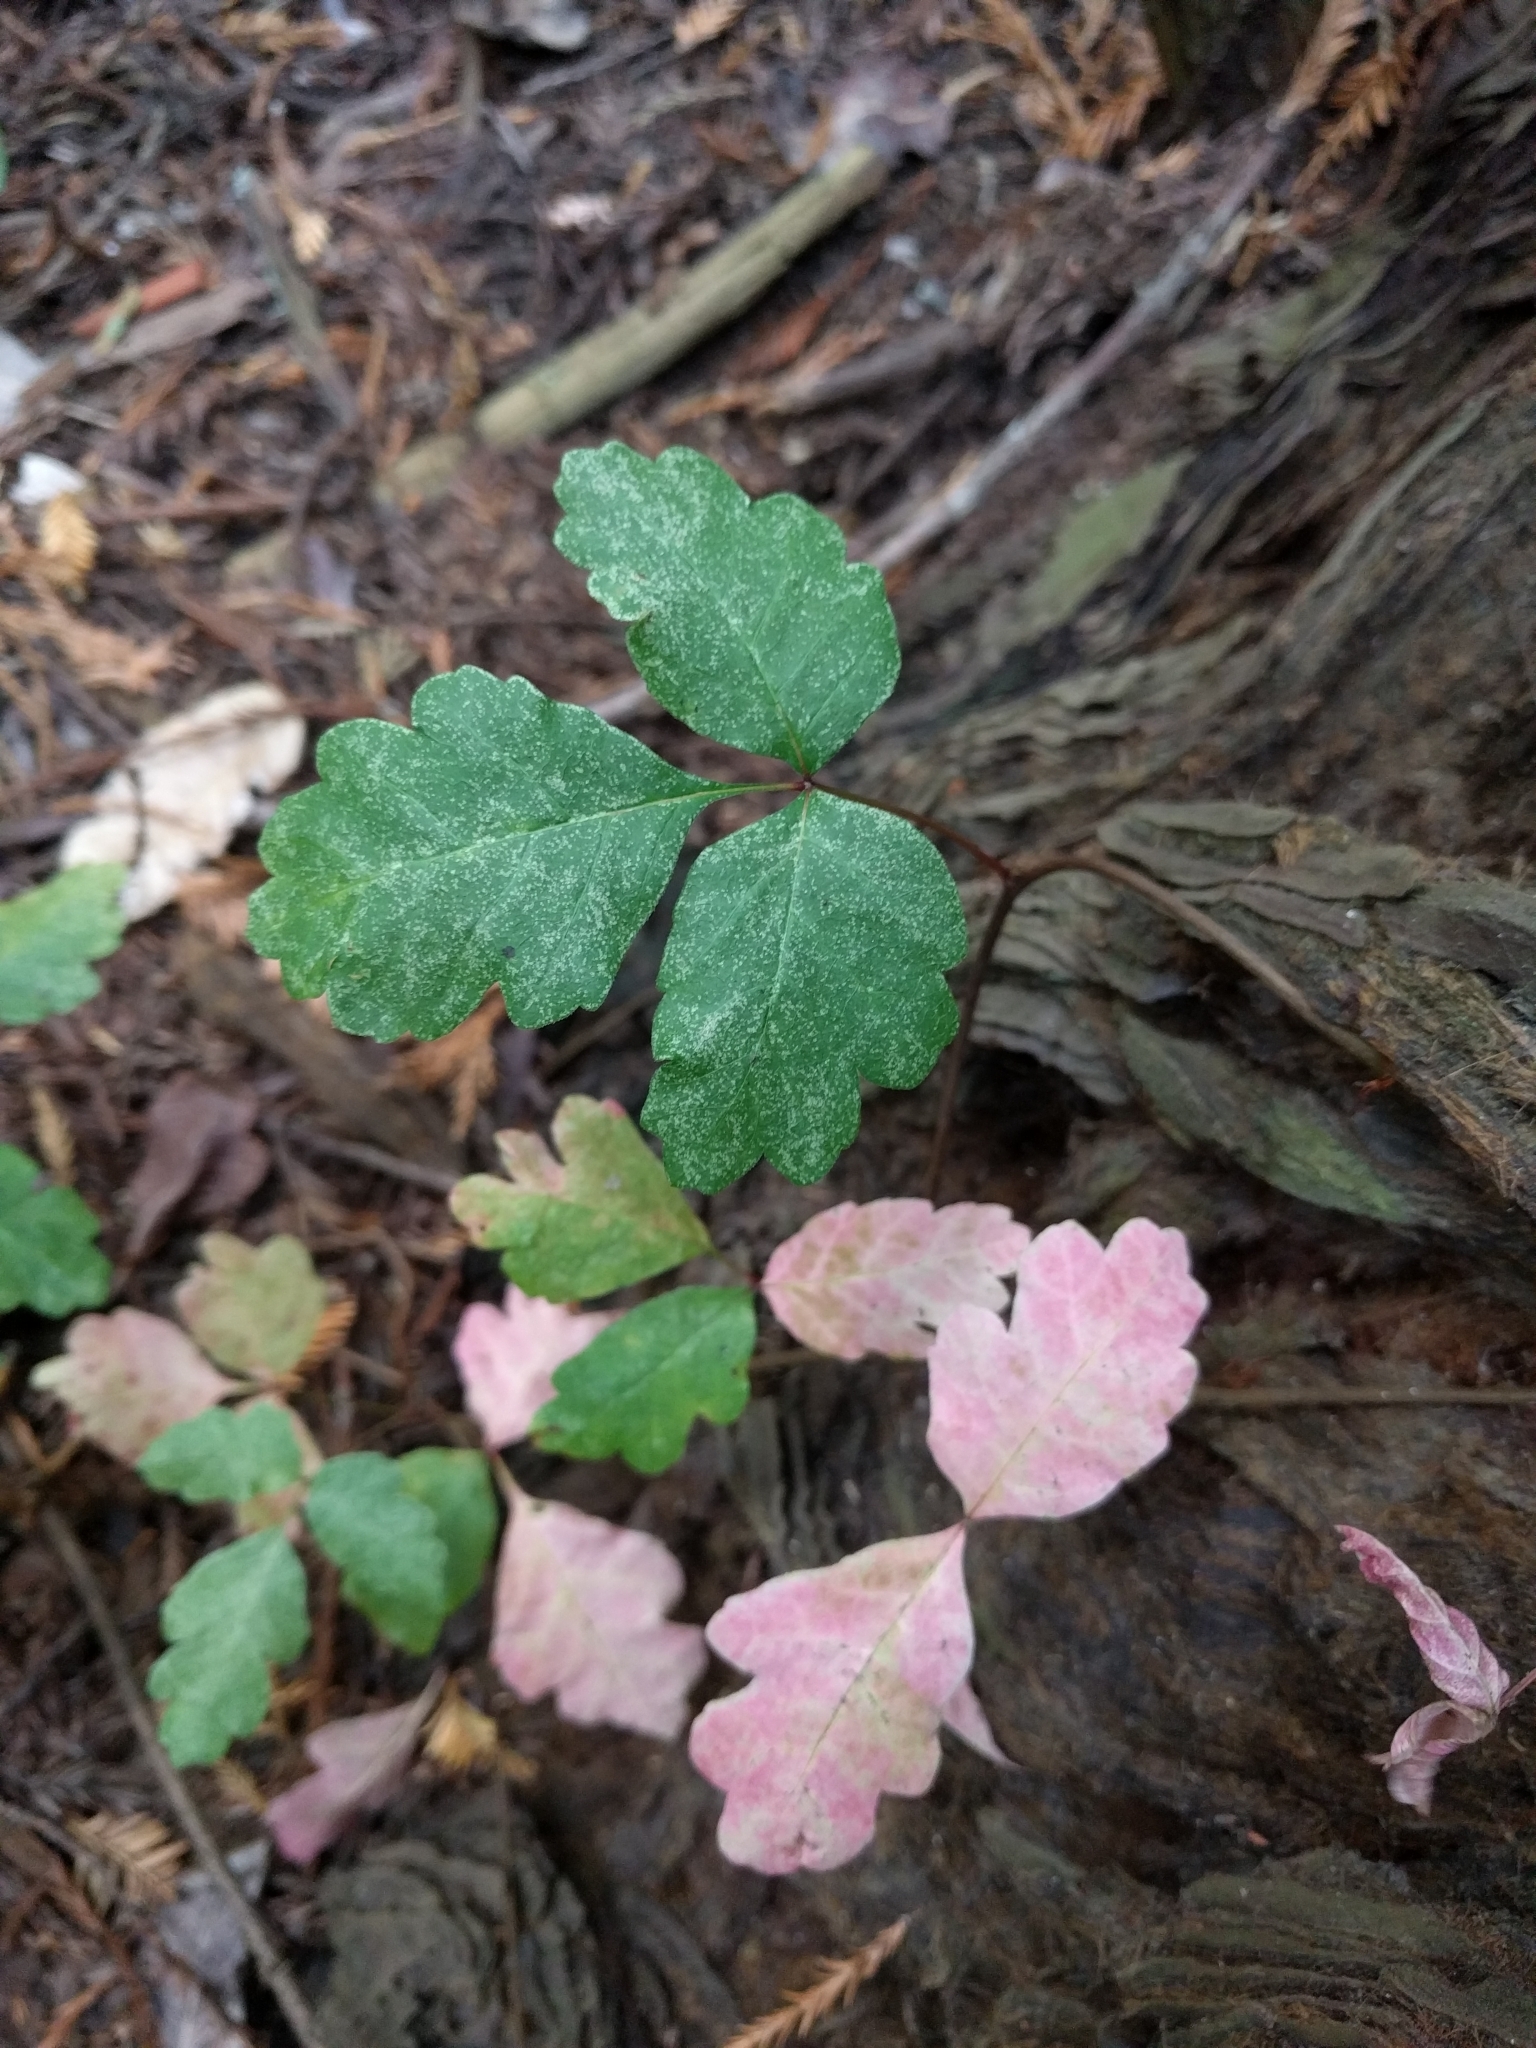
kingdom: Plantae
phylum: Tracheophyta
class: Magnoliopsida
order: Sapindales
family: Anacardiaceae
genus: Toxicodendron
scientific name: Toxicodendron diversilobum
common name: Pacific poison-oak
